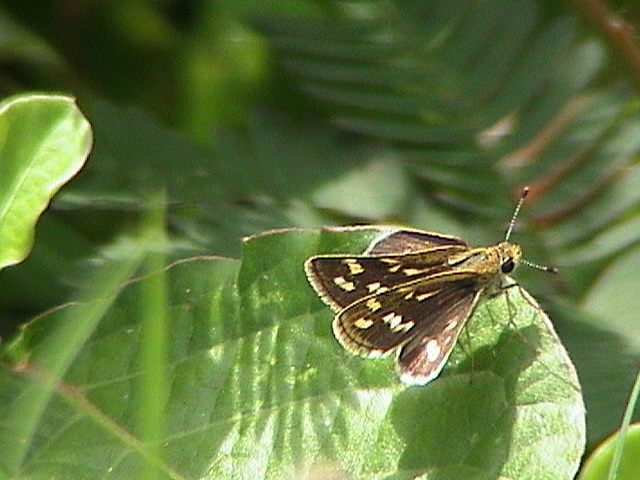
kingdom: Animalia
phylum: Arthropoda
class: Insecta
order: Lepidoptera
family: Hesperiidae
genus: Taractrocera
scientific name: Taractrocera maevius
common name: Common grass-dart
